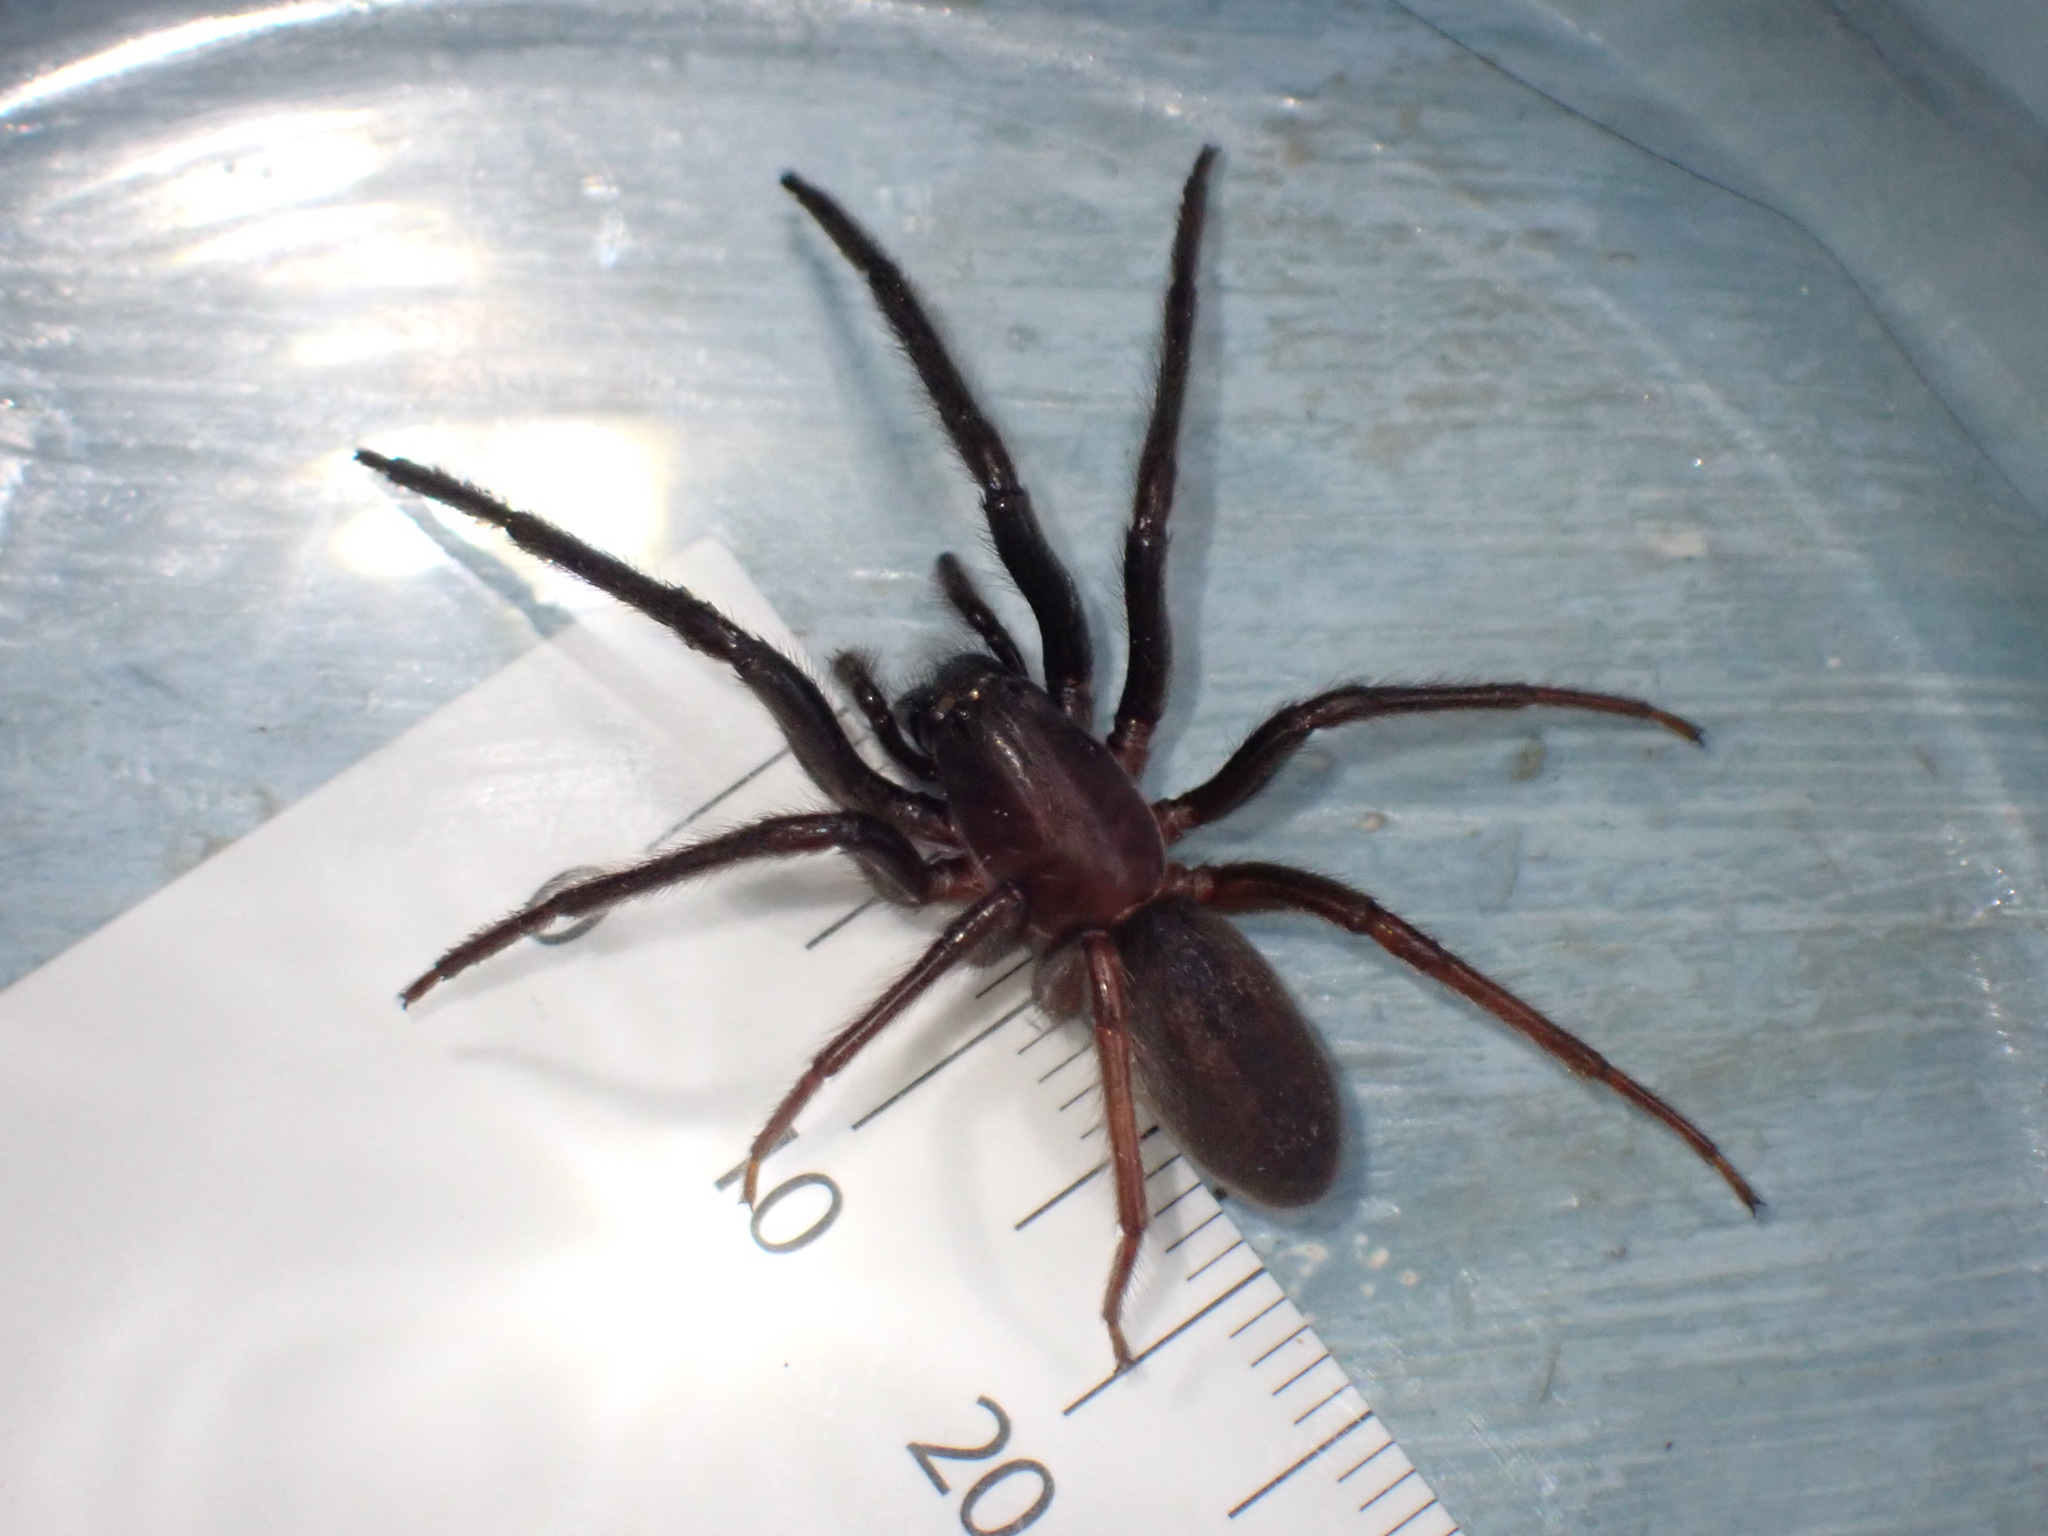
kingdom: Animalia
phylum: Arthropoda
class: Arachnida
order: Araneae
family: Segestriidae
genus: Segestria
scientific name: Segestria florentina
